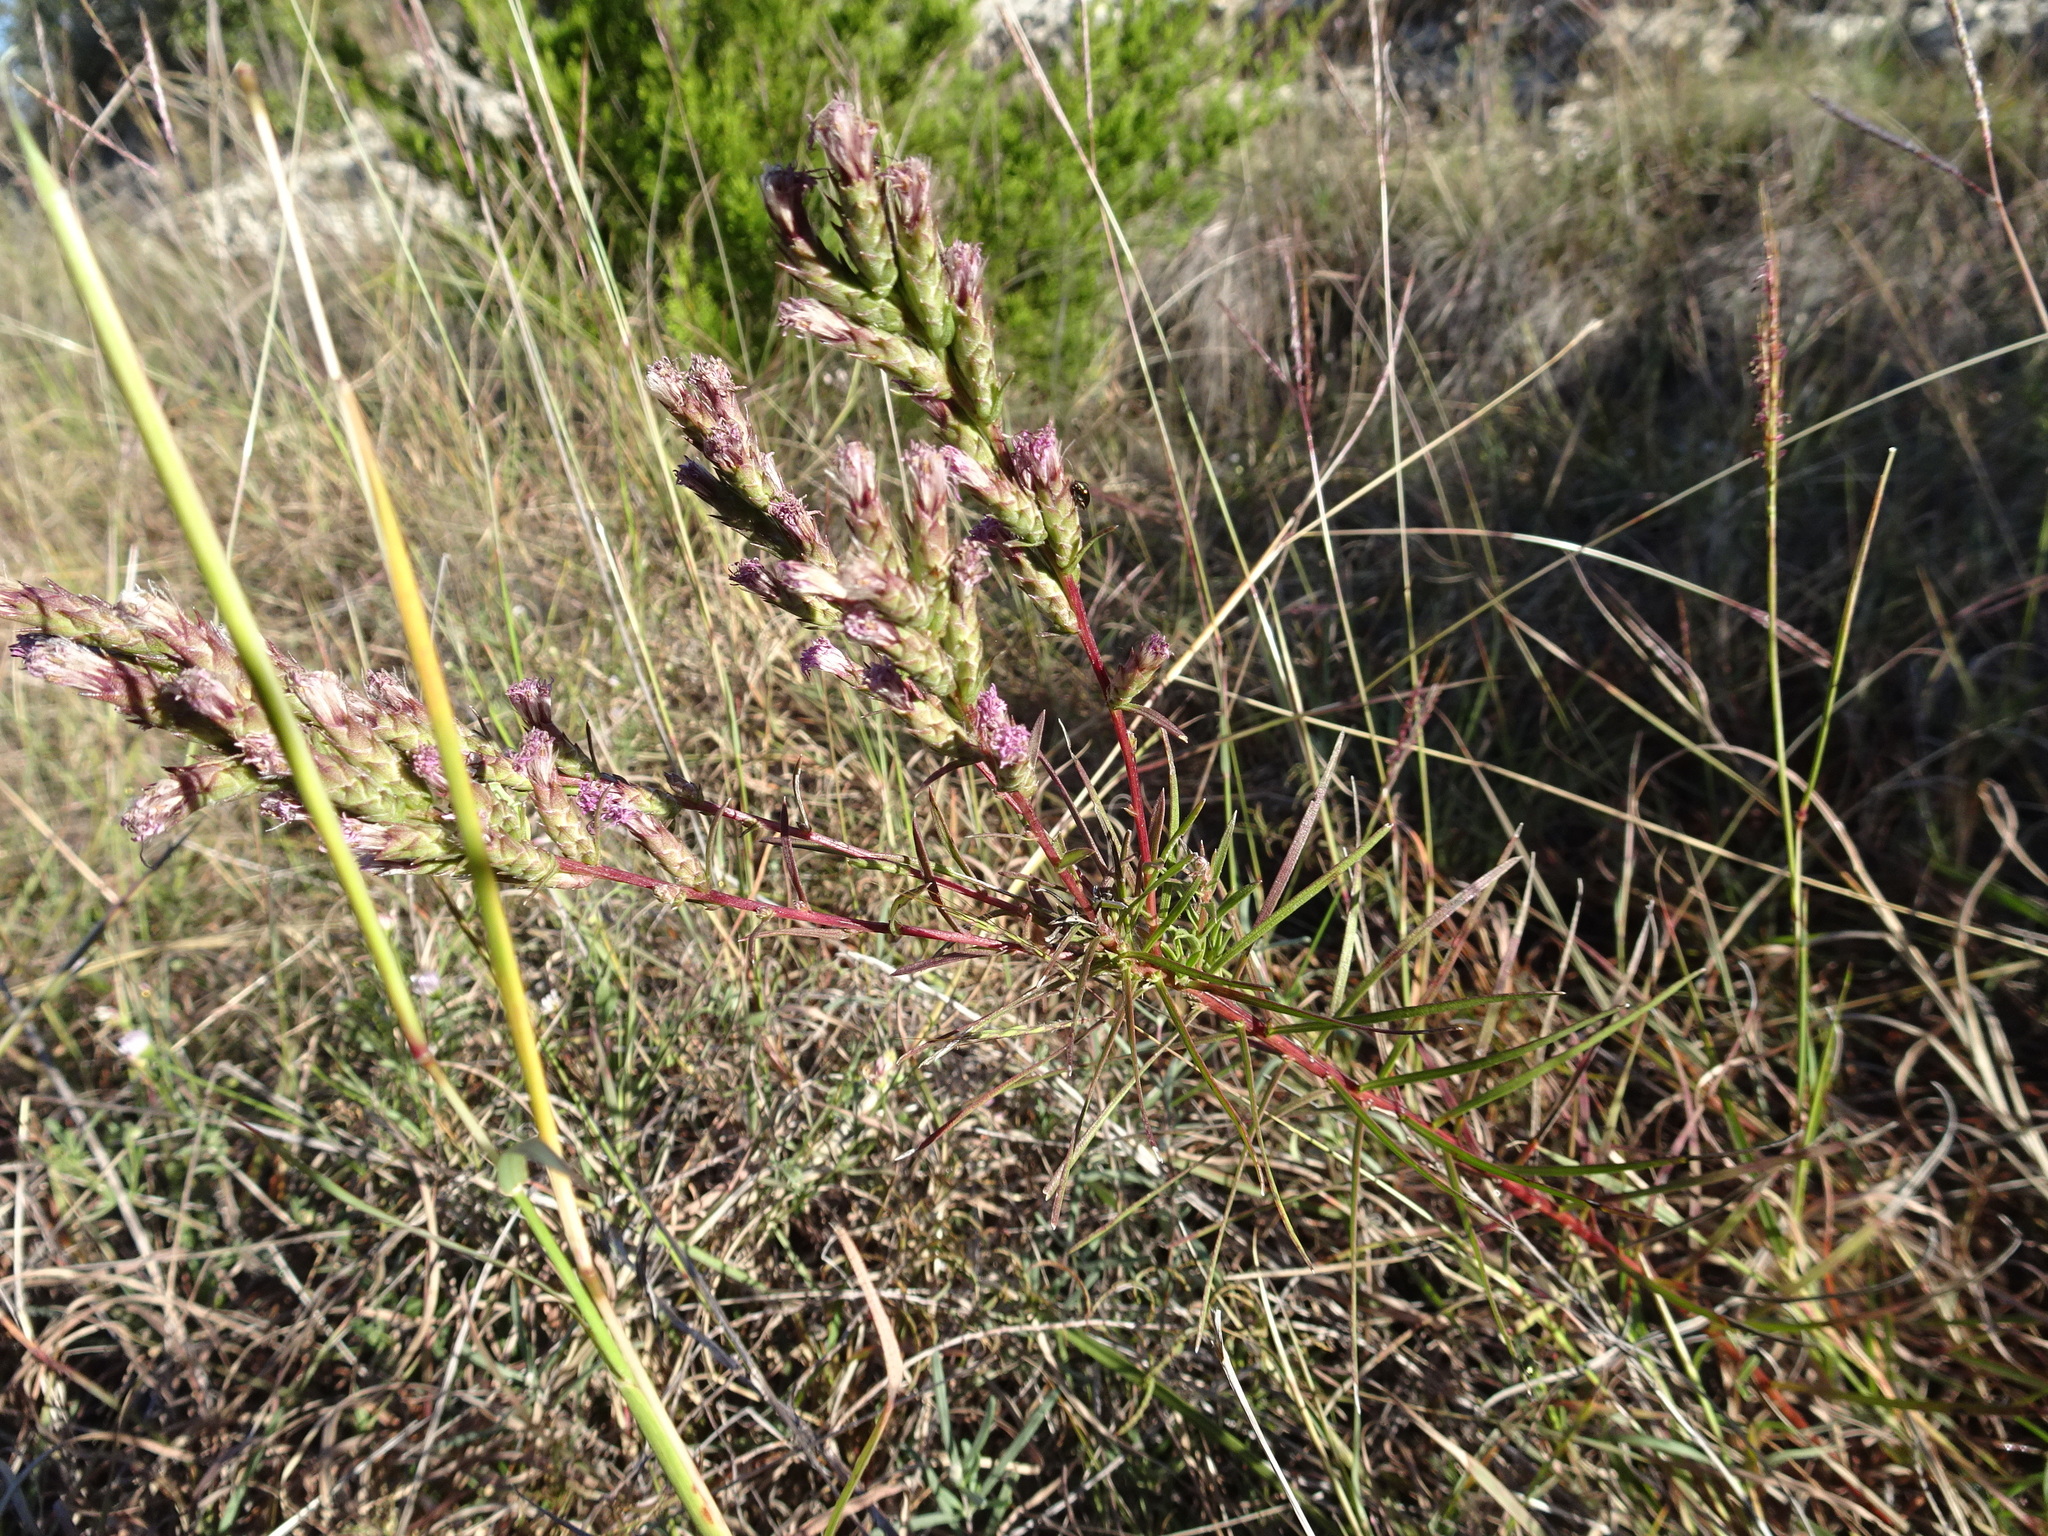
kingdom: Plantae
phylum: Tracheophyta
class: Magnoliopsida
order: Asterales
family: Asteraceae
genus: Liatris
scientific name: Liatris punctata
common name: Dotted gayfeather
